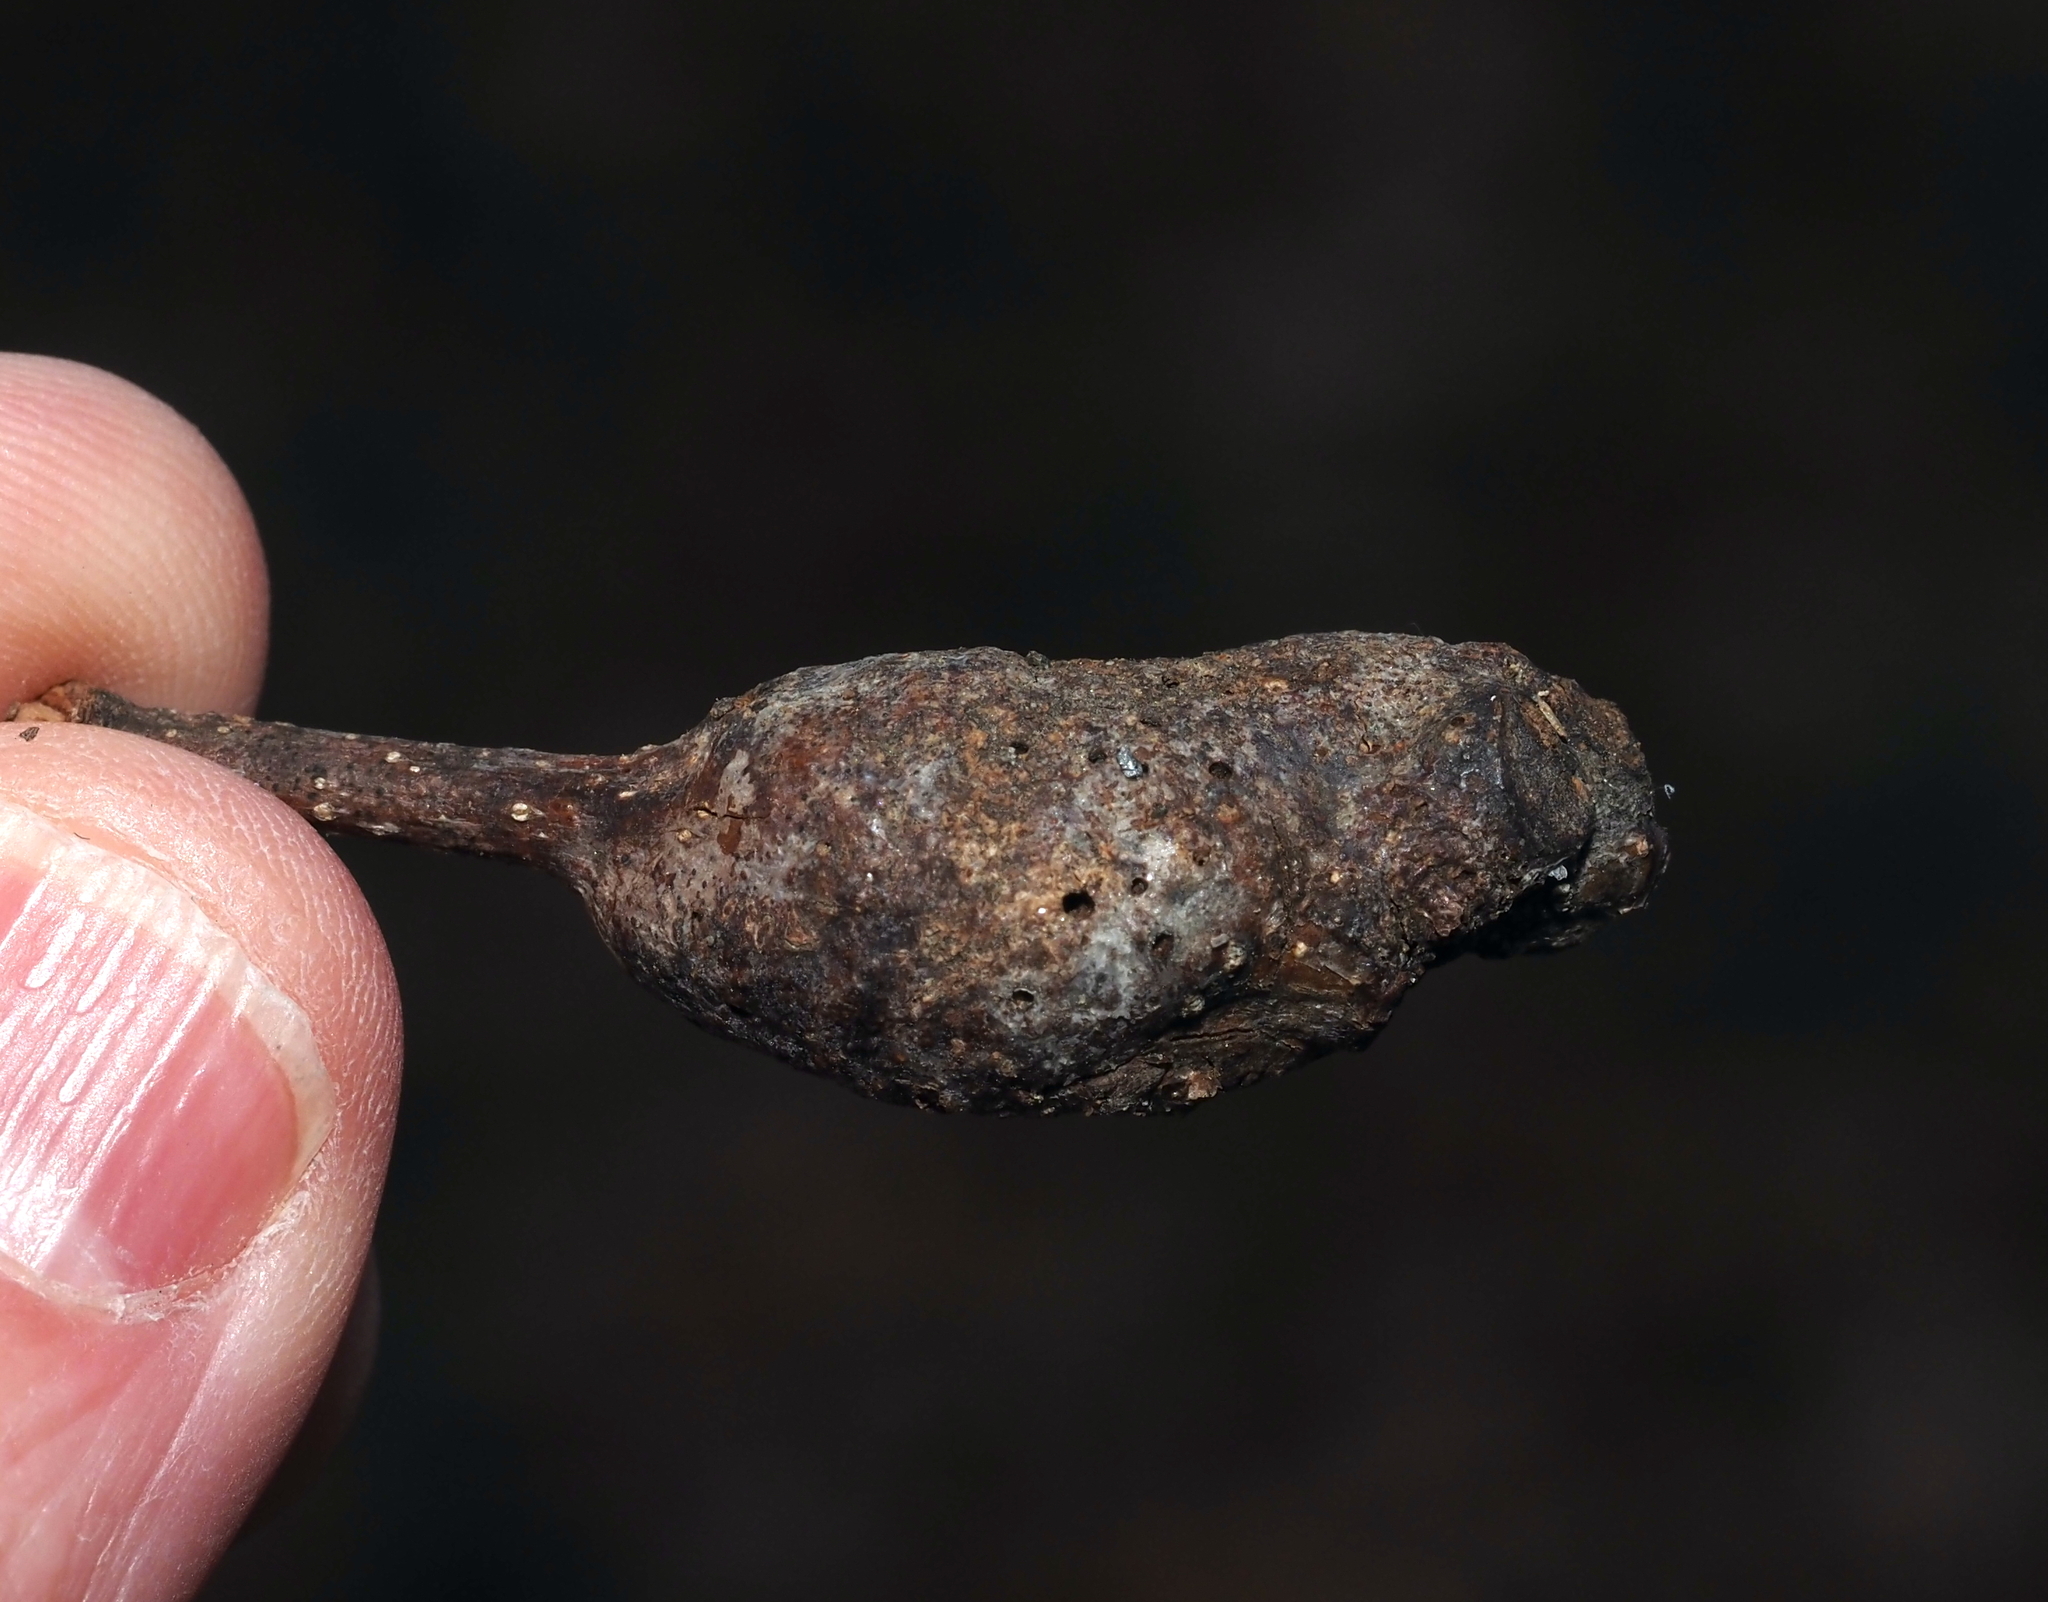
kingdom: Animalia
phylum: Arthropoda
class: Insecta
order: Hymenoptera
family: Cynipidae
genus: Neuroterus
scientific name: Neuroterus quercusbaccarum
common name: Common spangle gall
